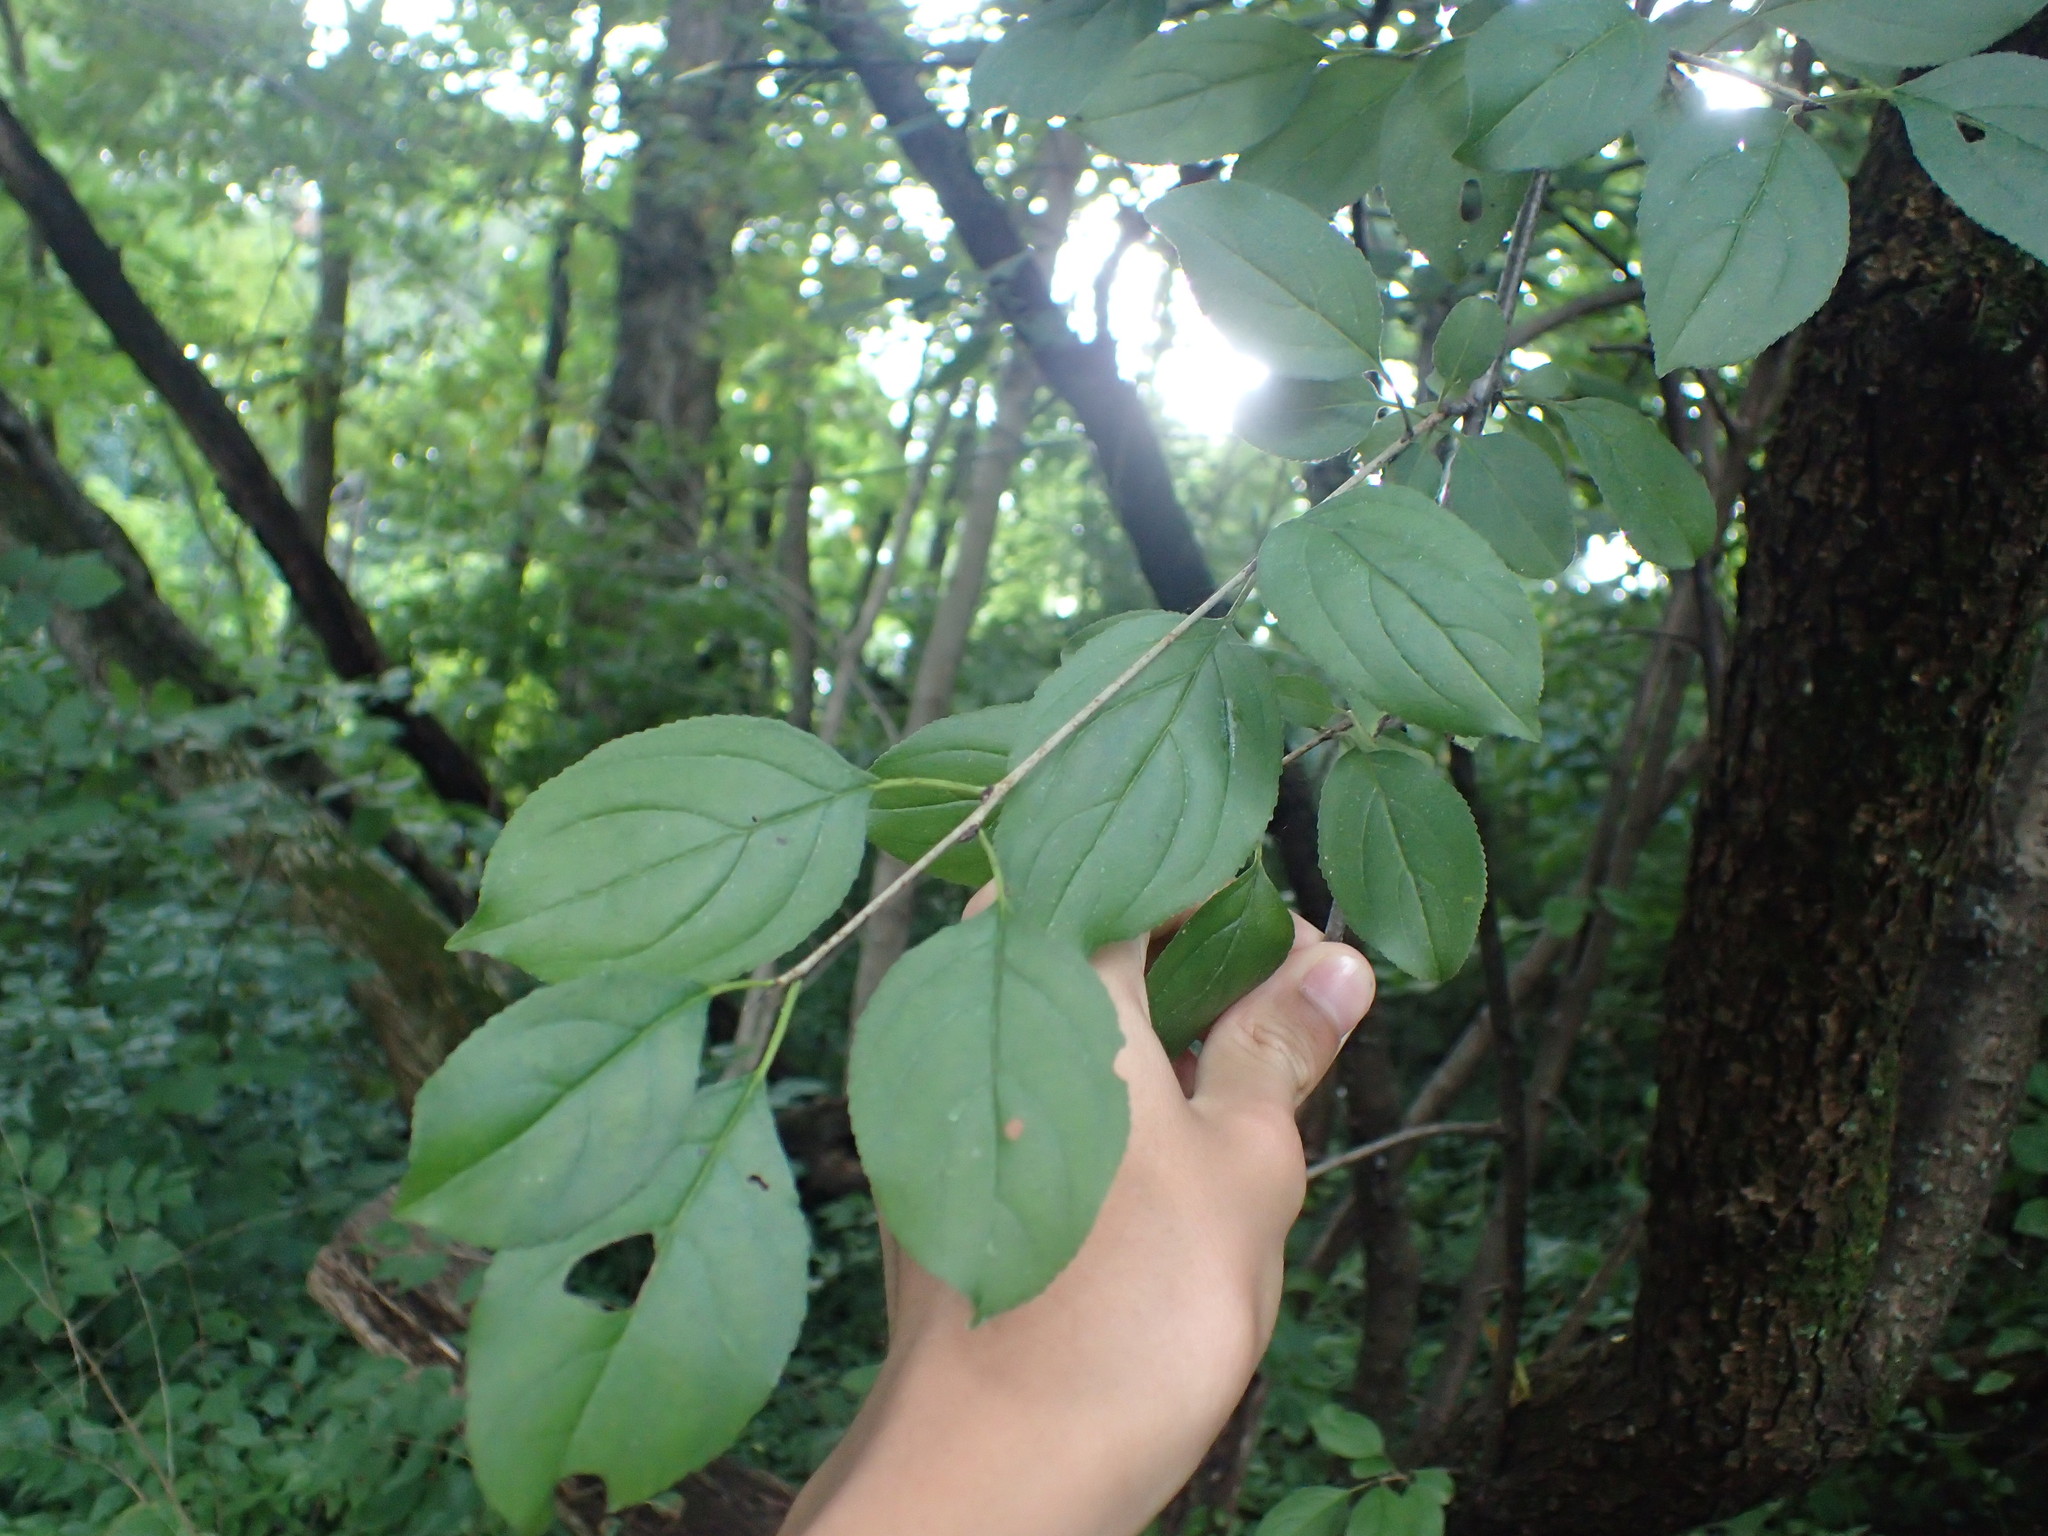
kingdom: Plantae
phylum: Tracheophyta
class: Magnoliopsida
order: Rosales
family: Rhamnaceae
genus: Rhamnus
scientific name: Rhamnus cathartica
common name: Common buckthorn
